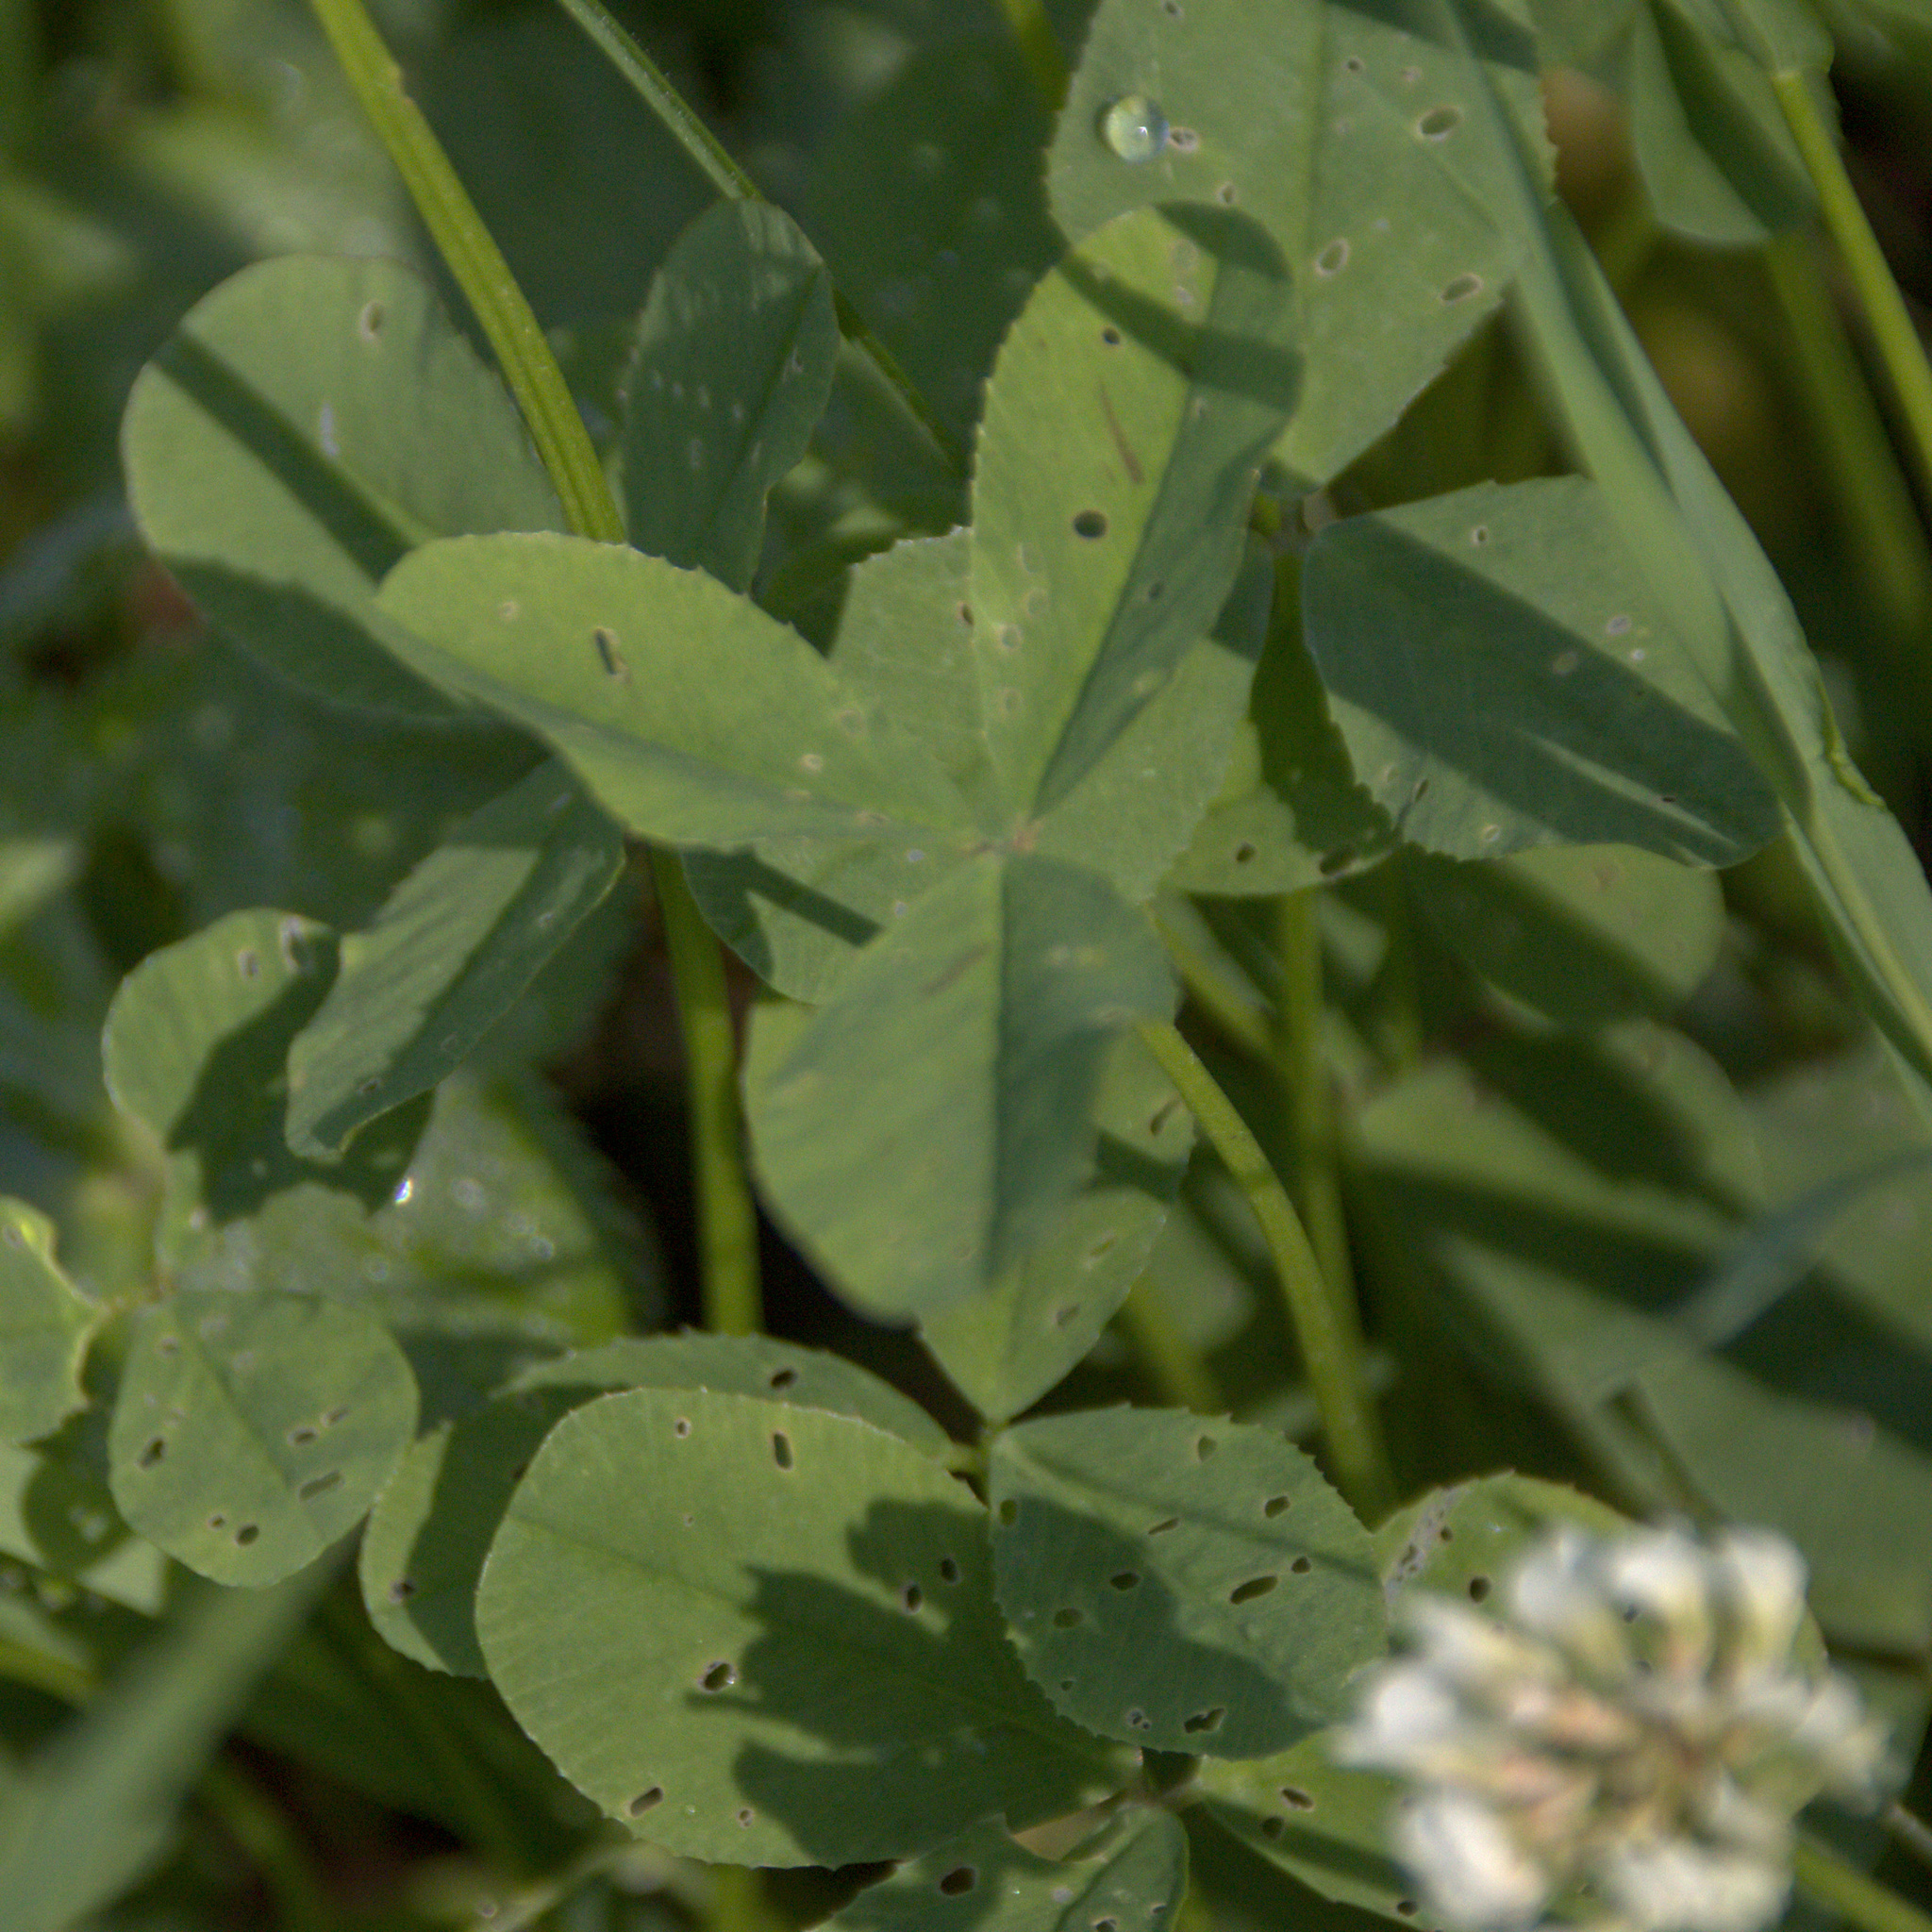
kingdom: Plantae
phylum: Tracheophyta
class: Magnoliopsida
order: Fabales
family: Fabaceae
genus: Trifolium
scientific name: Trifolium repens
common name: White clover
